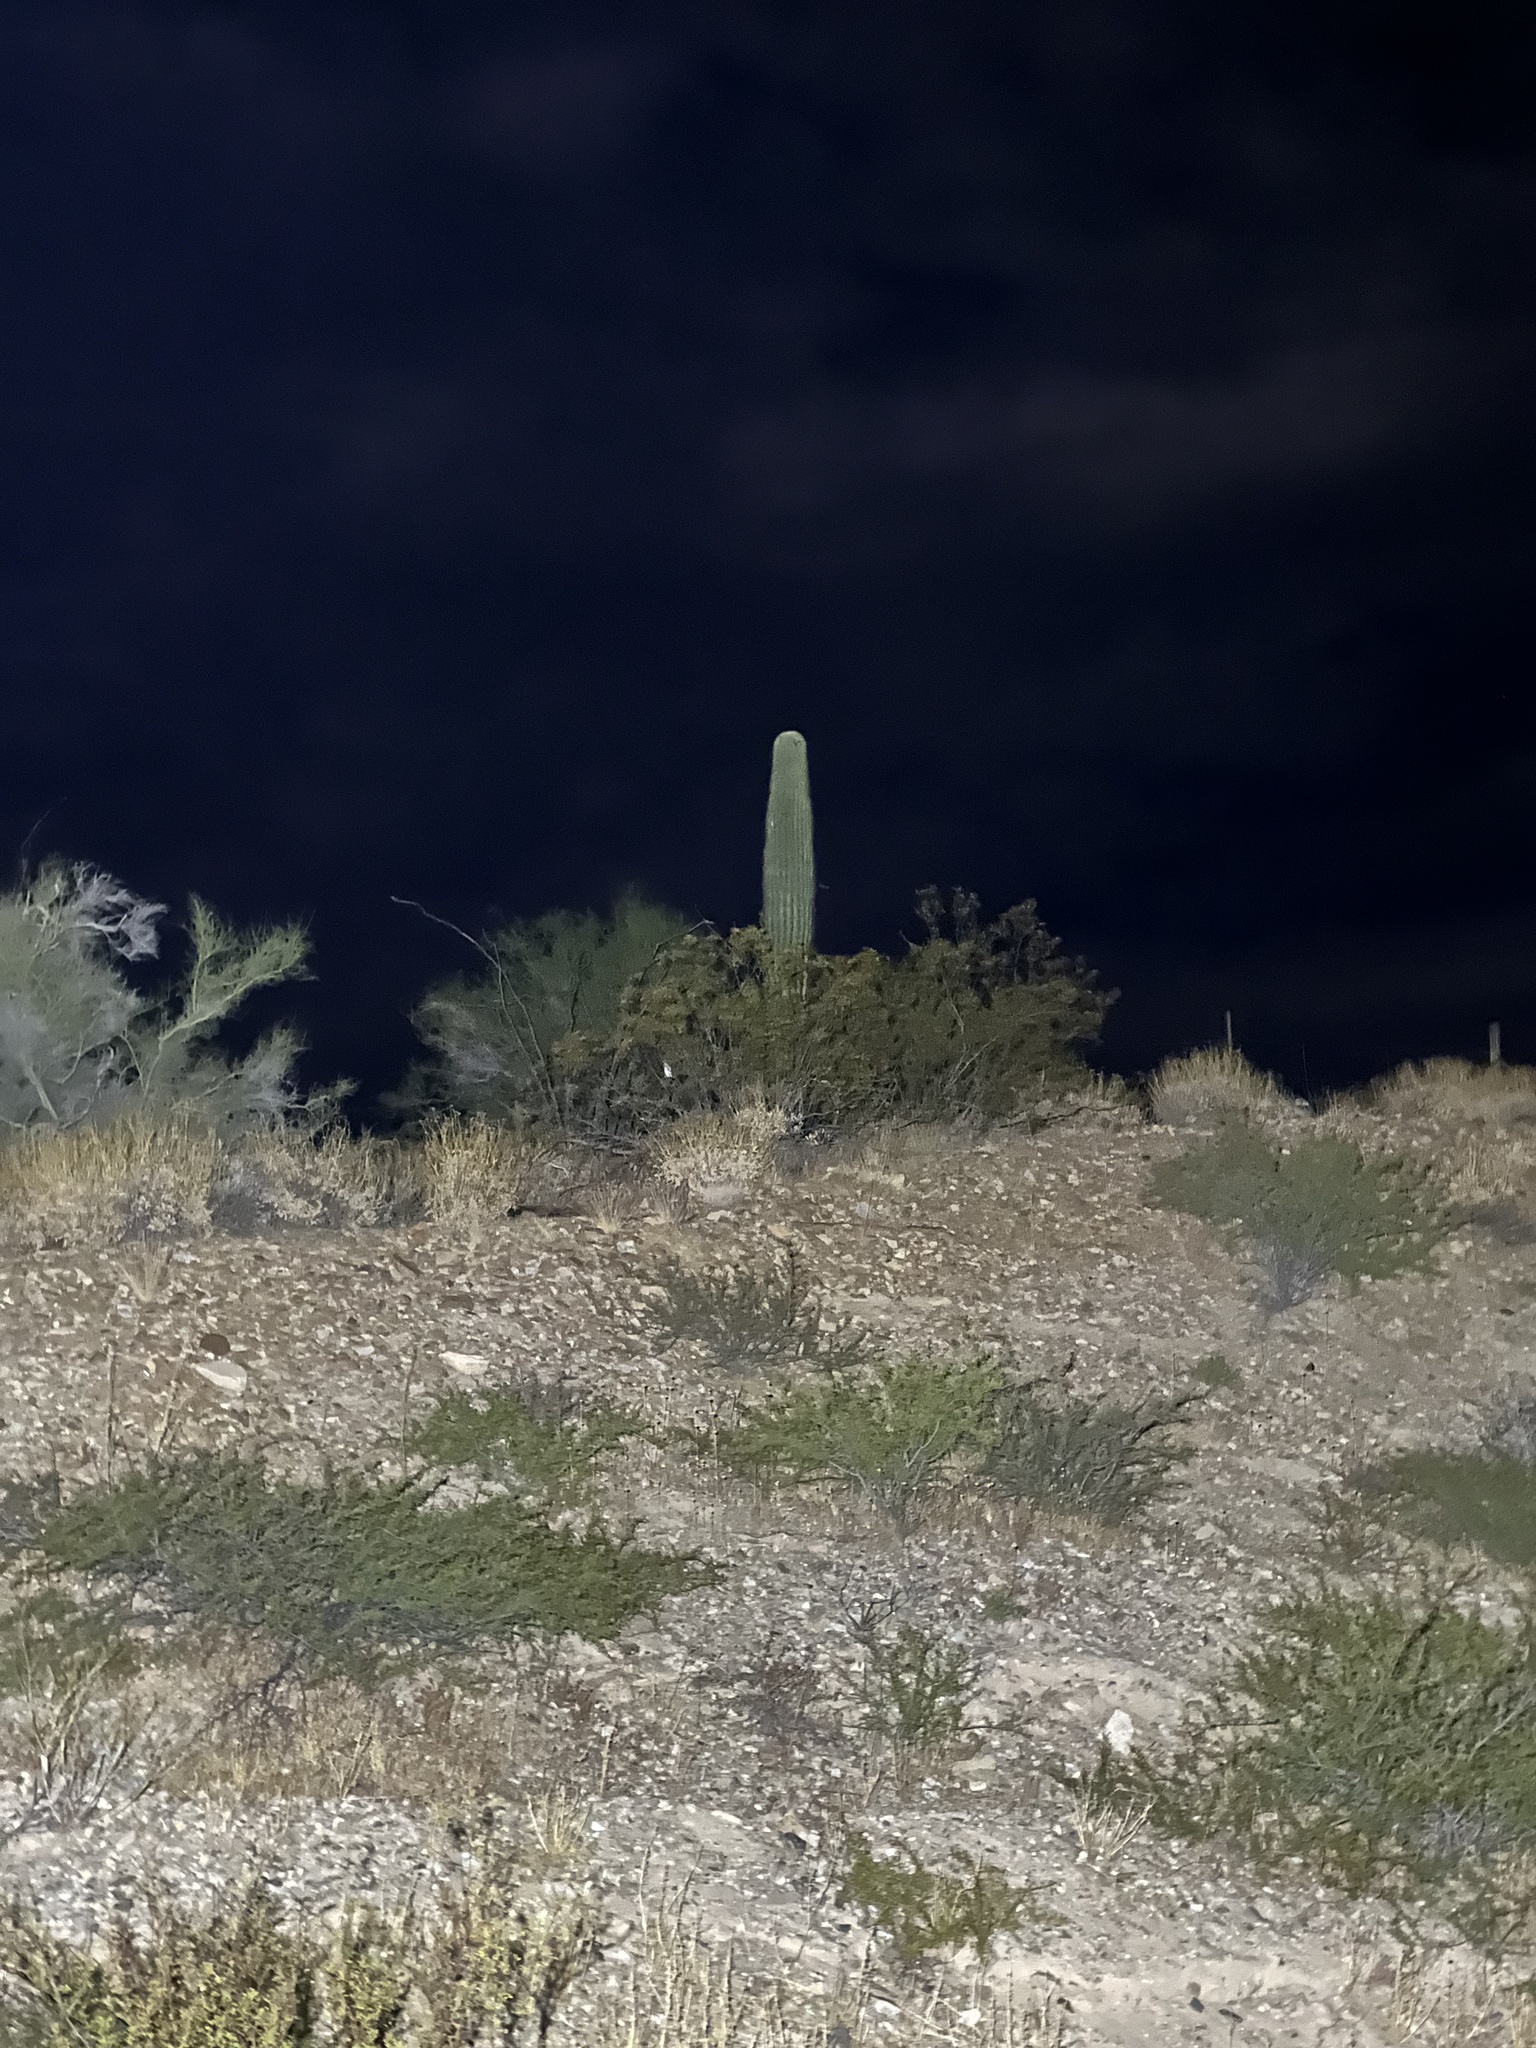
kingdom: Plantae
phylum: Tracheophyta
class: Magnoliopsida
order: Caryophyllales
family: Cactaceae
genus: Carnegiea
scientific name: Carnegiea gigantea
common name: Saguaro
